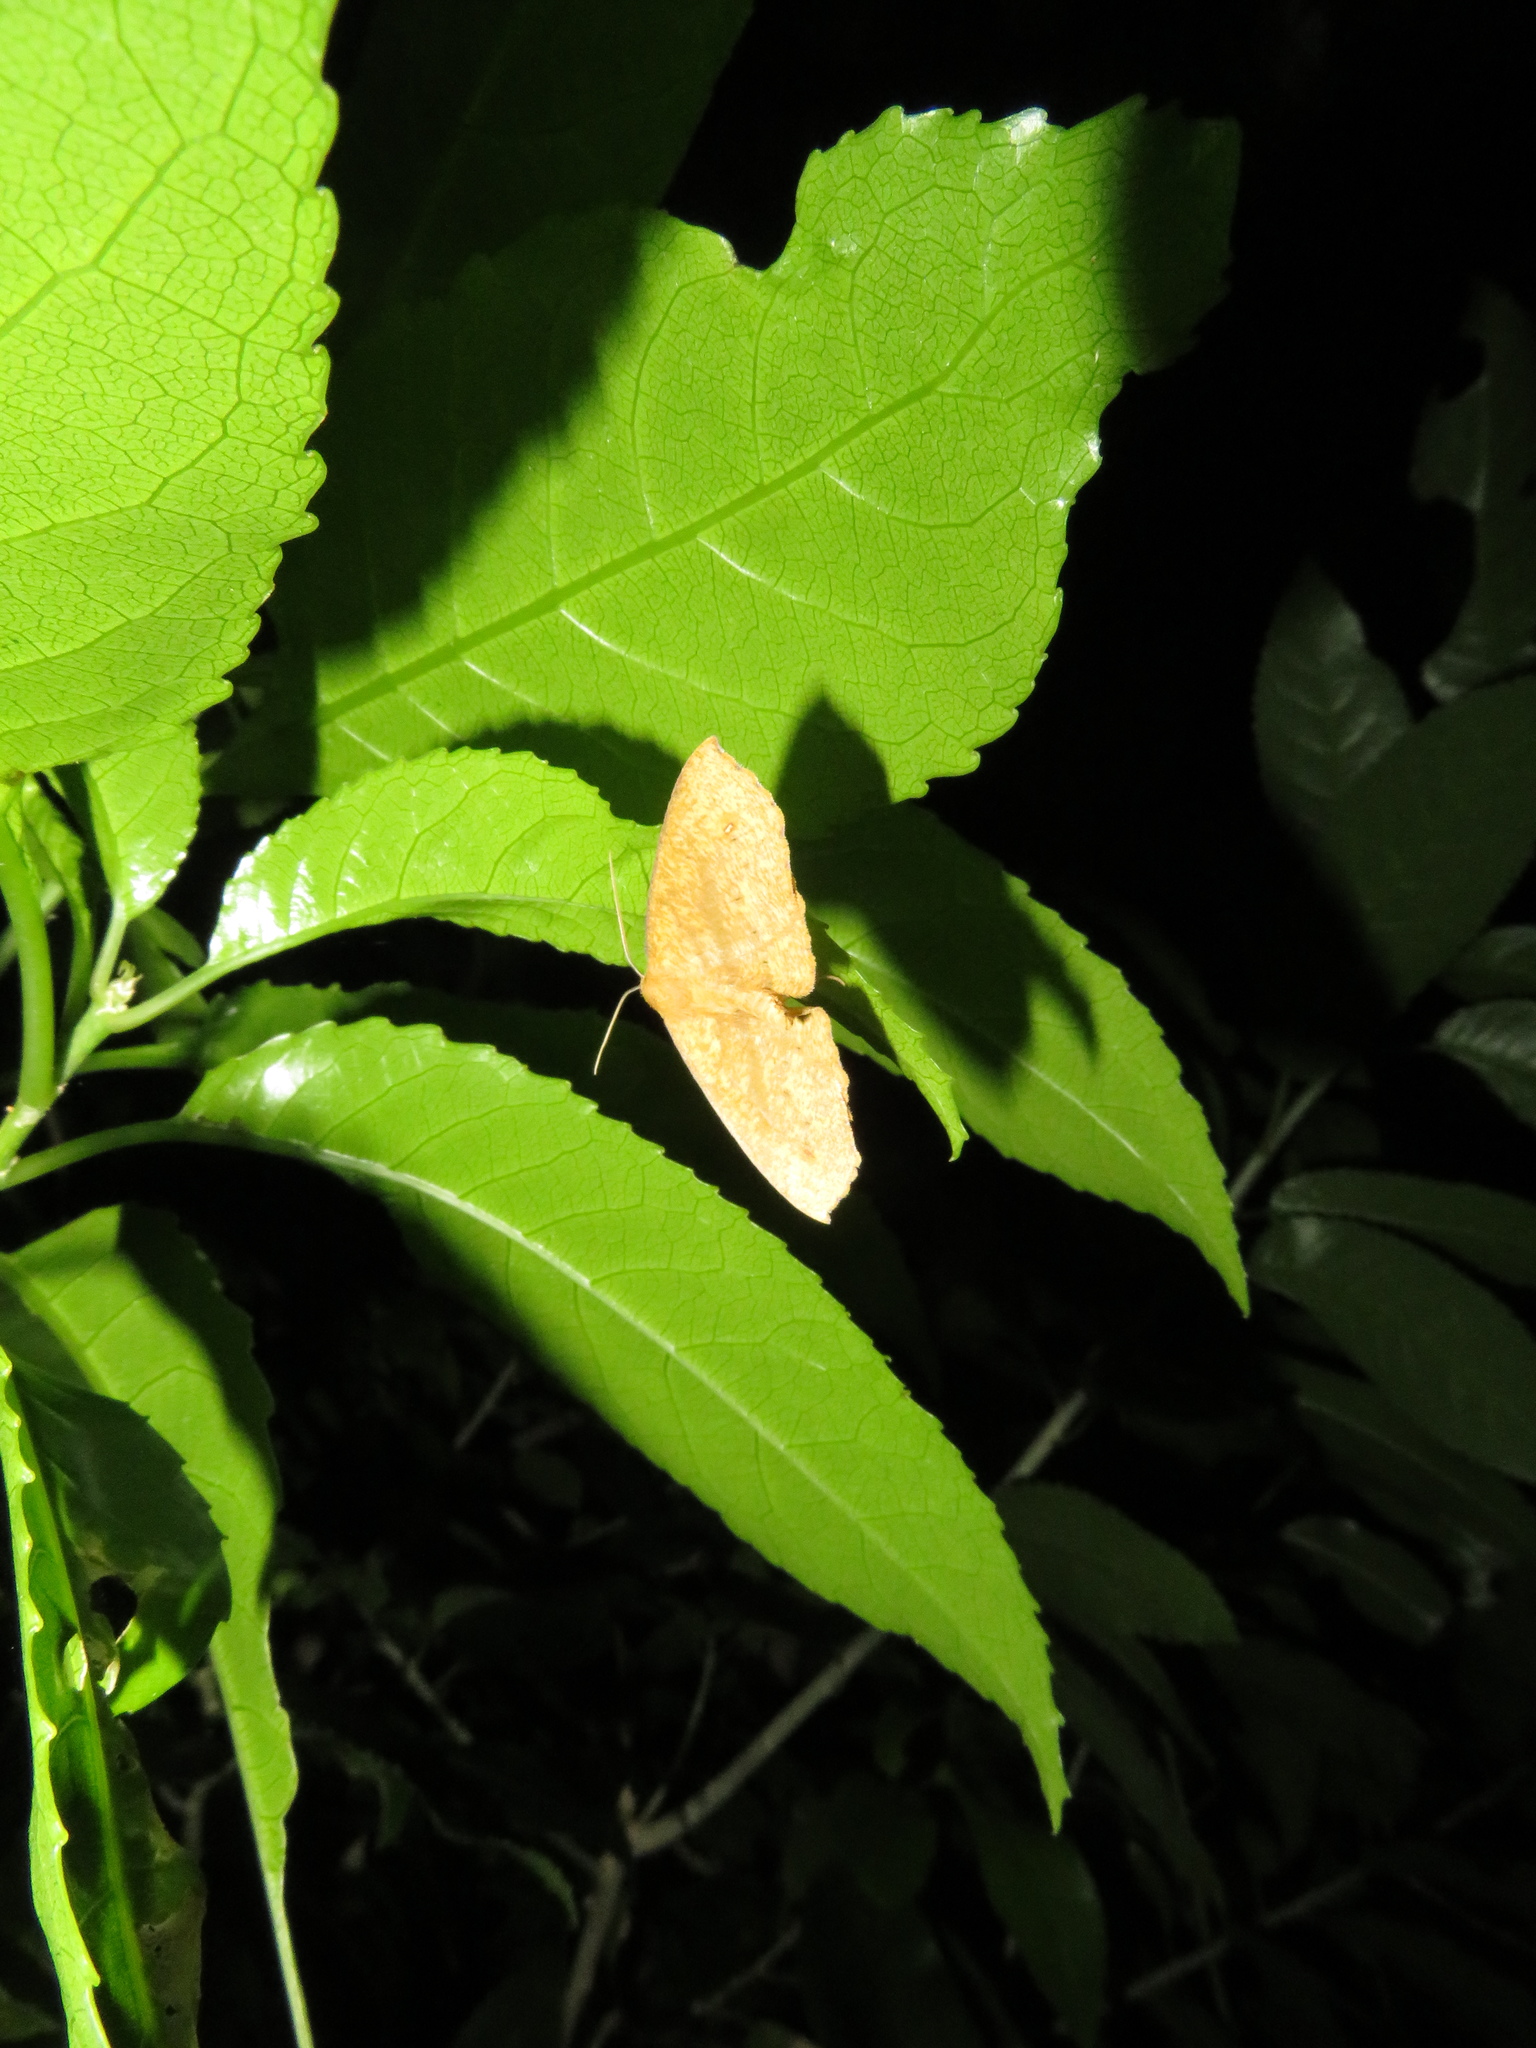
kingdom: Animalia
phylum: Arthropoda
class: Insecta
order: Lepidoptera
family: Geometridae
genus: Xyridacma
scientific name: Xyridacma veronicae
